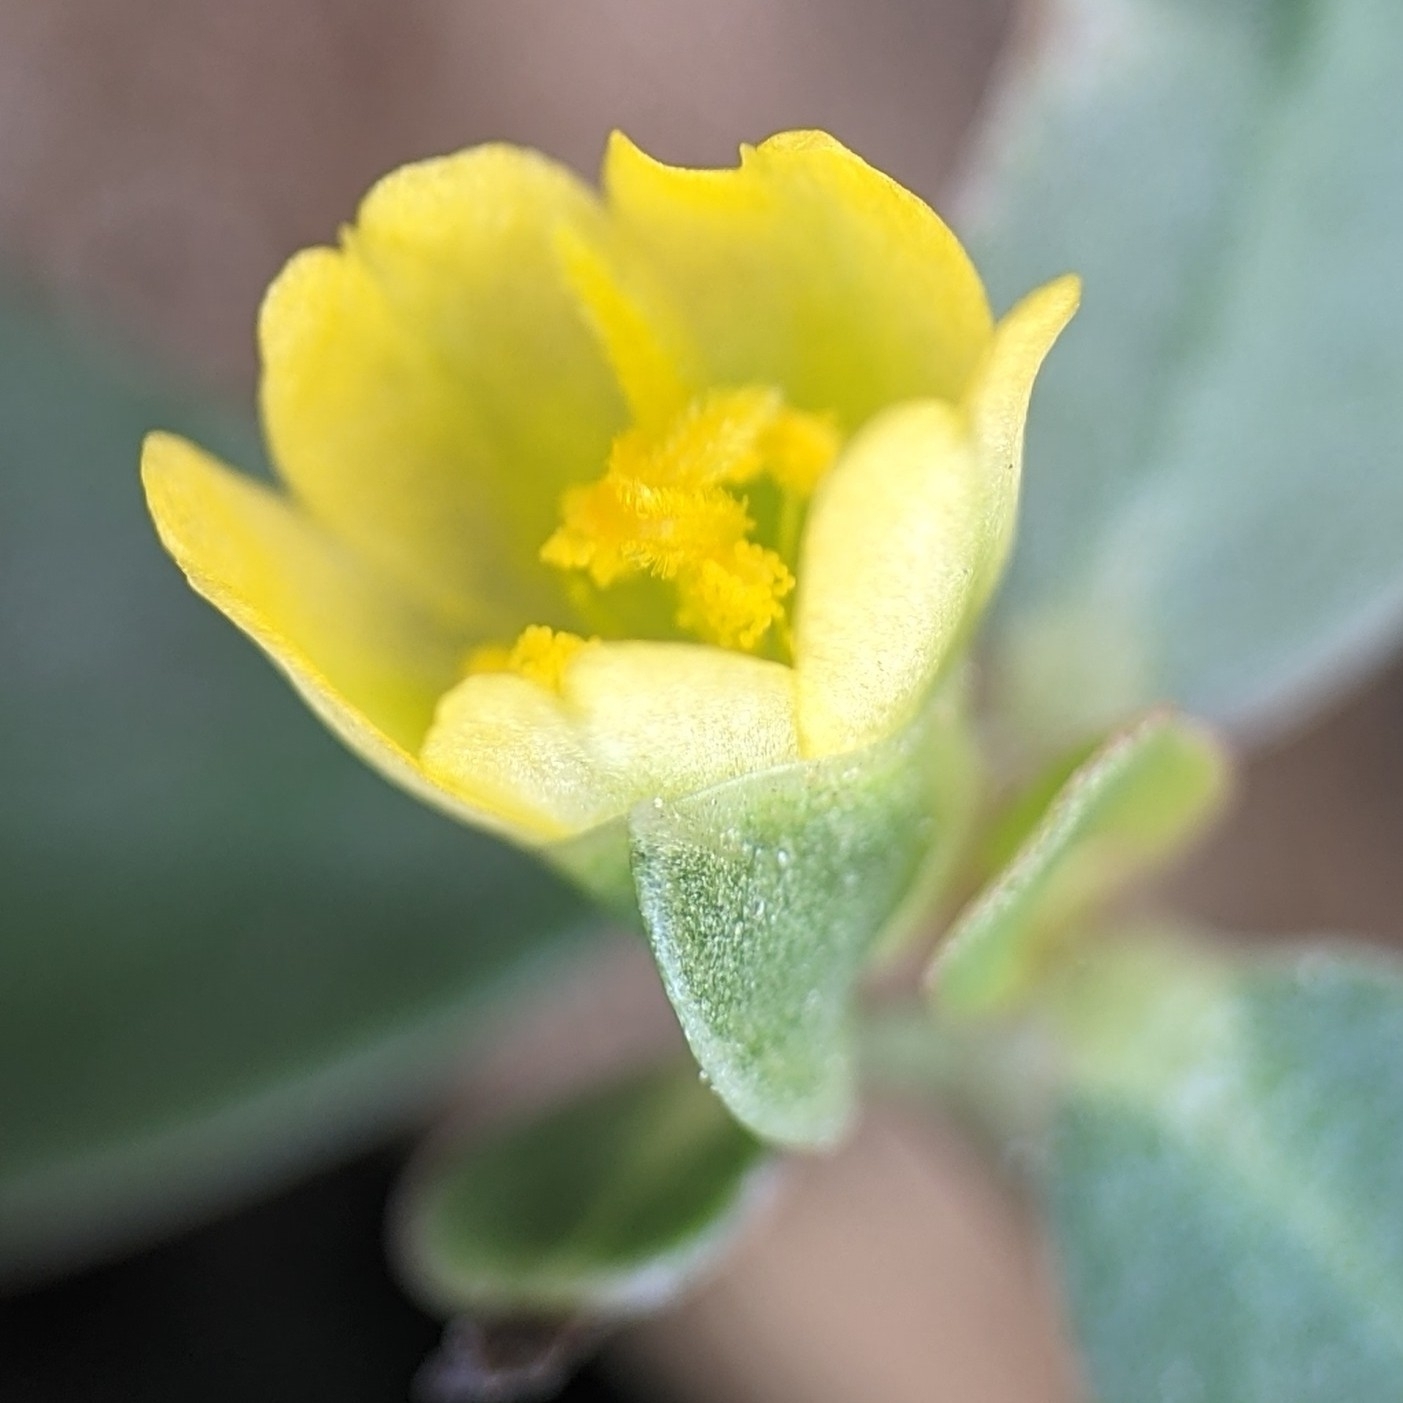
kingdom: Plantae
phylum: Tracheophyta
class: Magnoliopsida
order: Caryophyllales
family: Portulacaceae
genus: Portulaca
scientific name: Portulaca oleracea
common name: Common purslane
